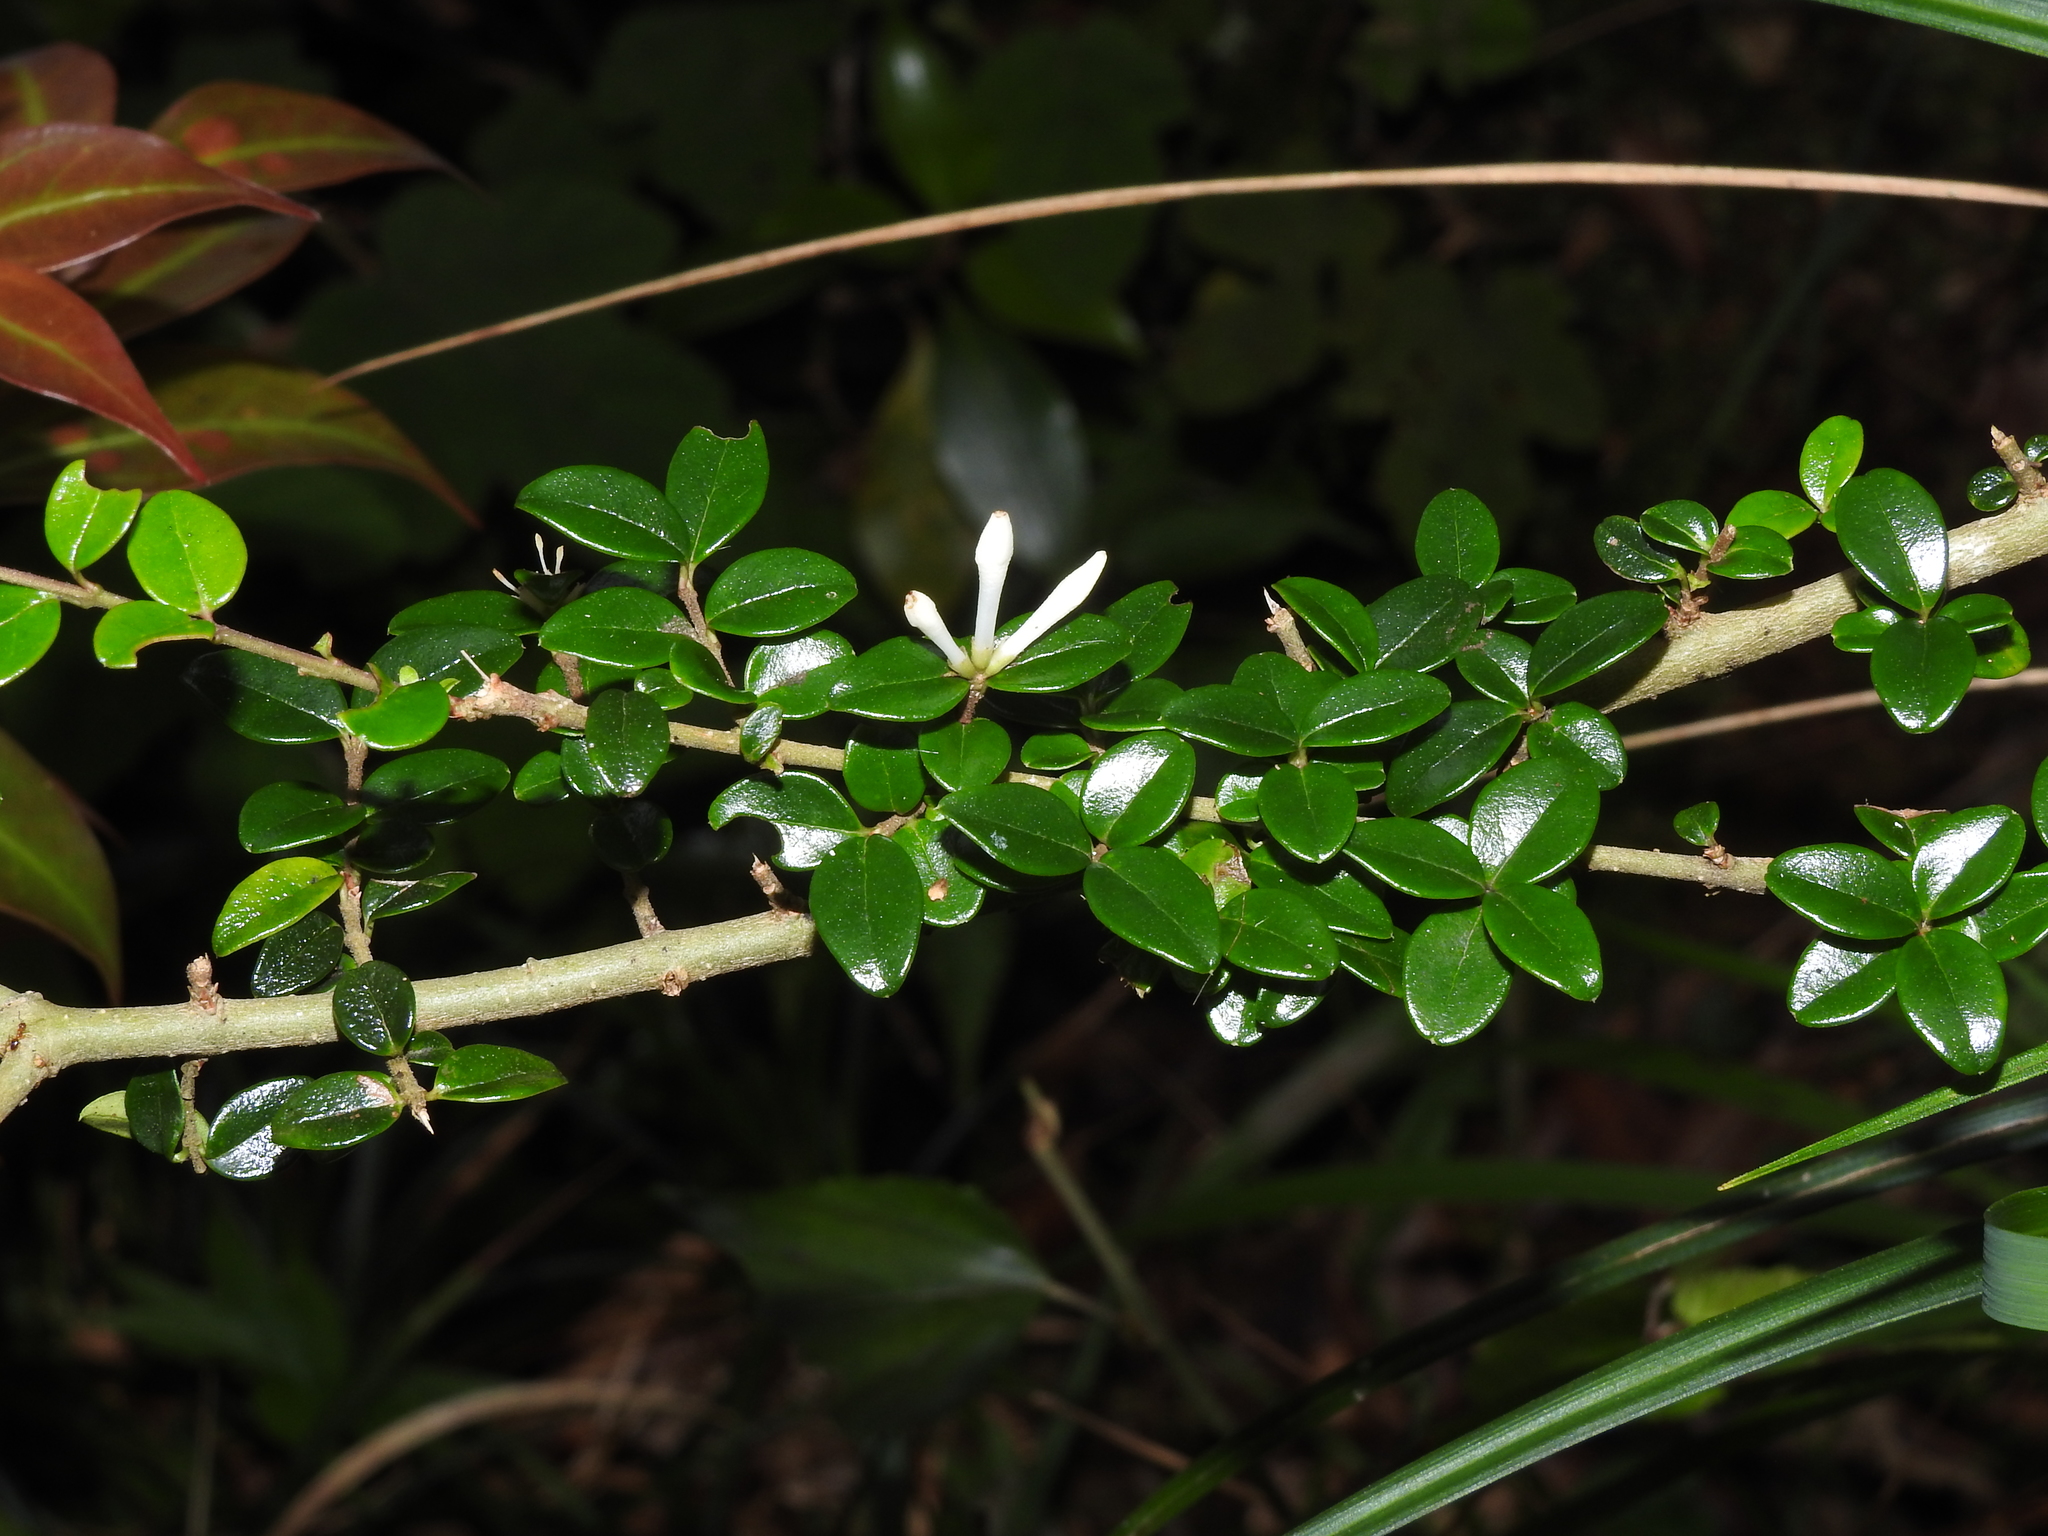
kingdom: Plantae
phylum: Tracheophyta
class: Magnoliopsida
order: Lamiales
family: Oleaceae
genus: Ligustrum
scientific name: Ligustrum morrisonense
